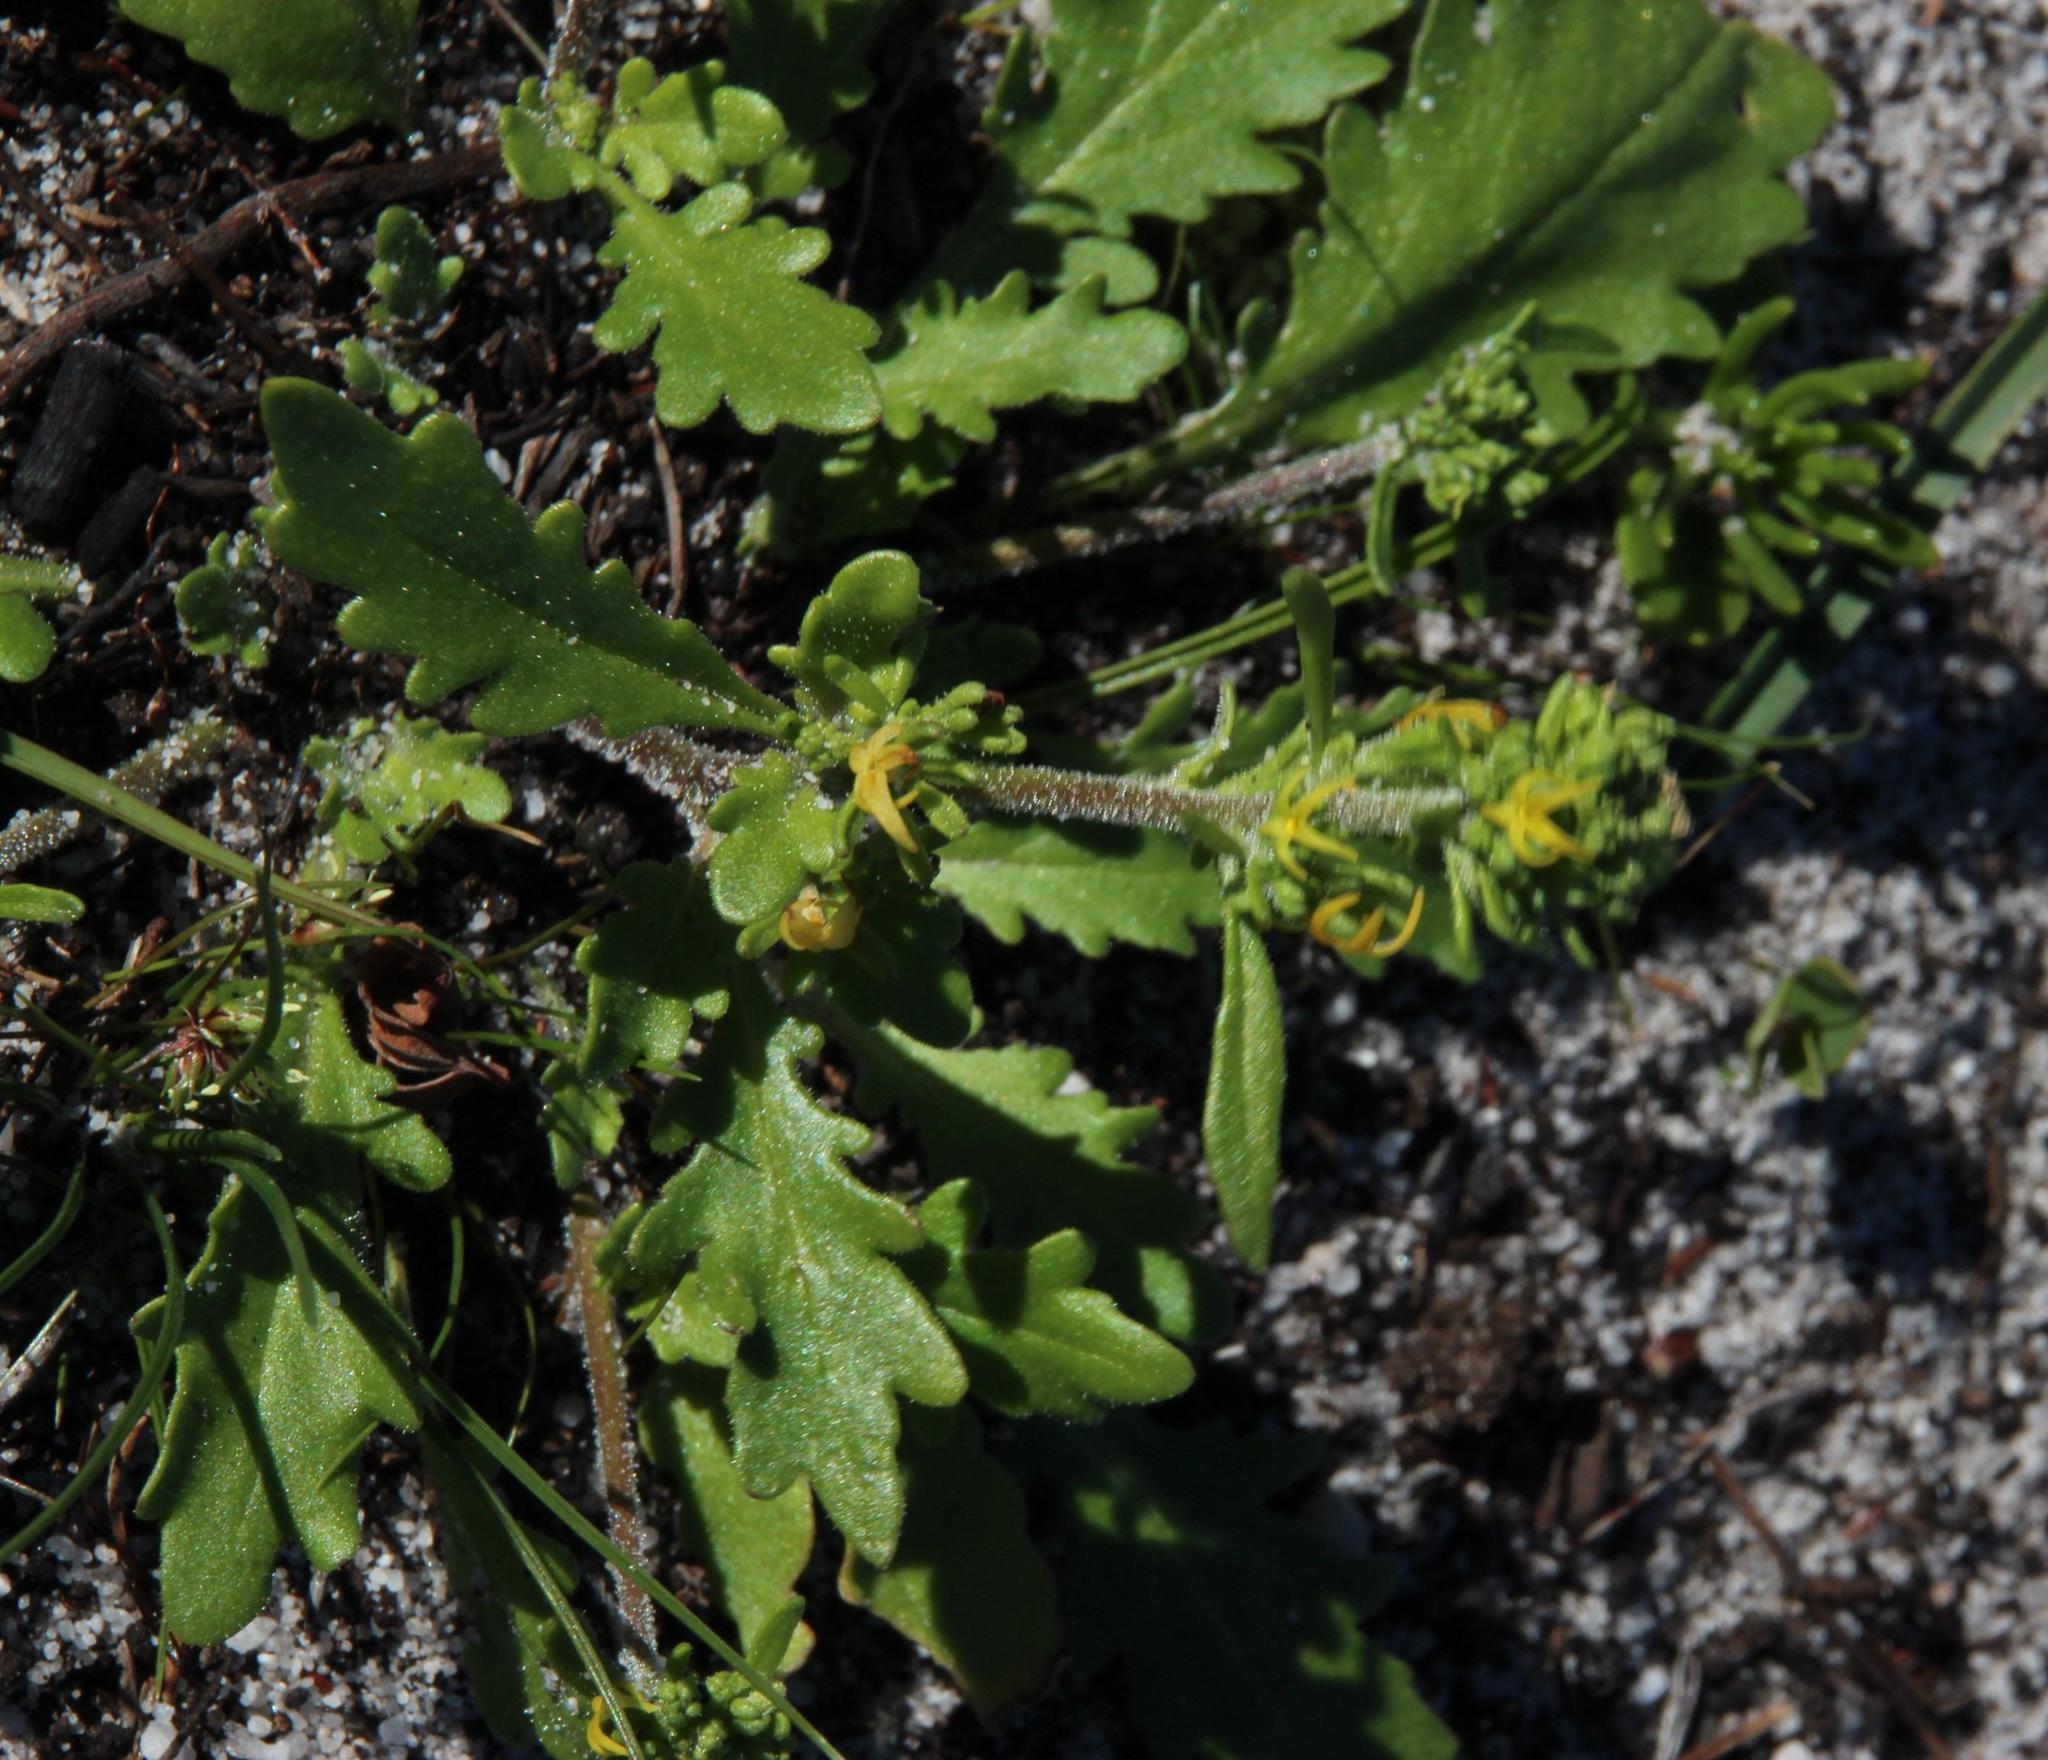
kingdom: Plantae
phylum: Tracheophyta
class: Magnoliopsida
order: Lamiales
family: Scrophulariaceae
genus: Manulea
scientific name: Manulea cheiranthus
